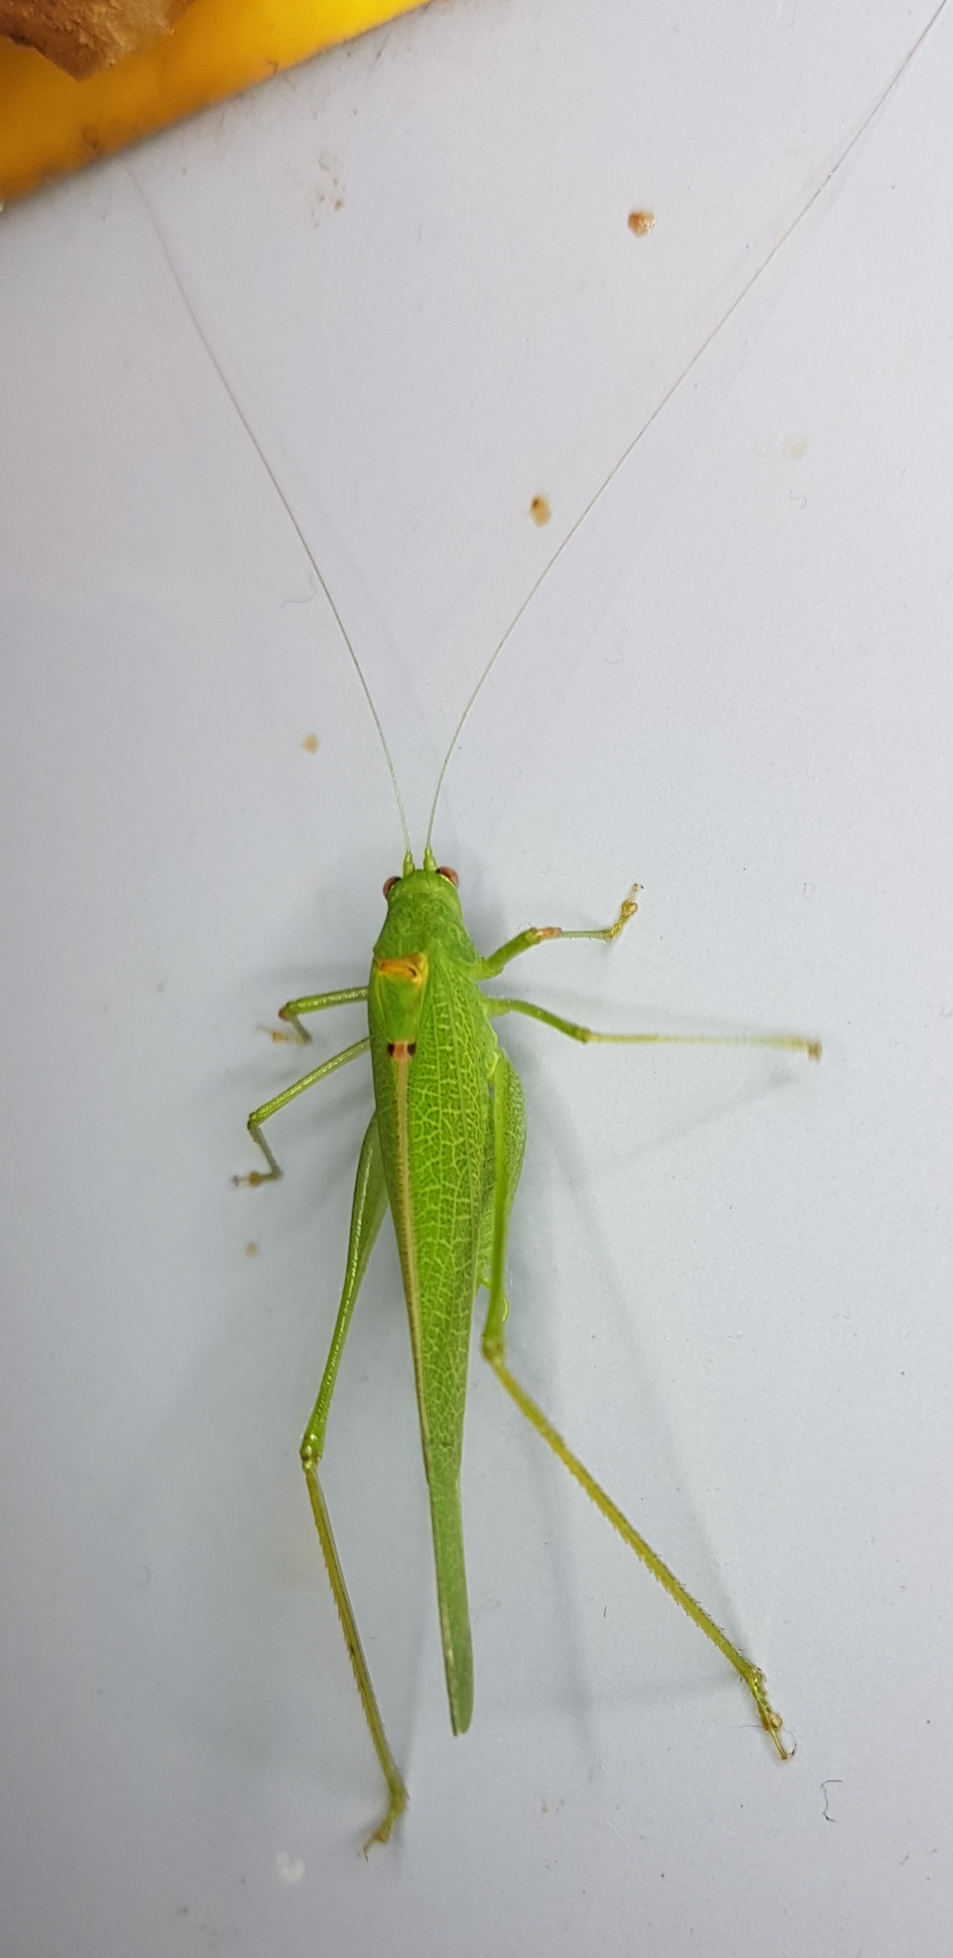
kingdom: Animalia
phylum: Arthropoda
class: Insecta
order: Orthoptera
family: Tettigoniidae
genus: Phaneroptera
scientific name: Phaneroptera nana
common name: Southern sickle bush-cricket
